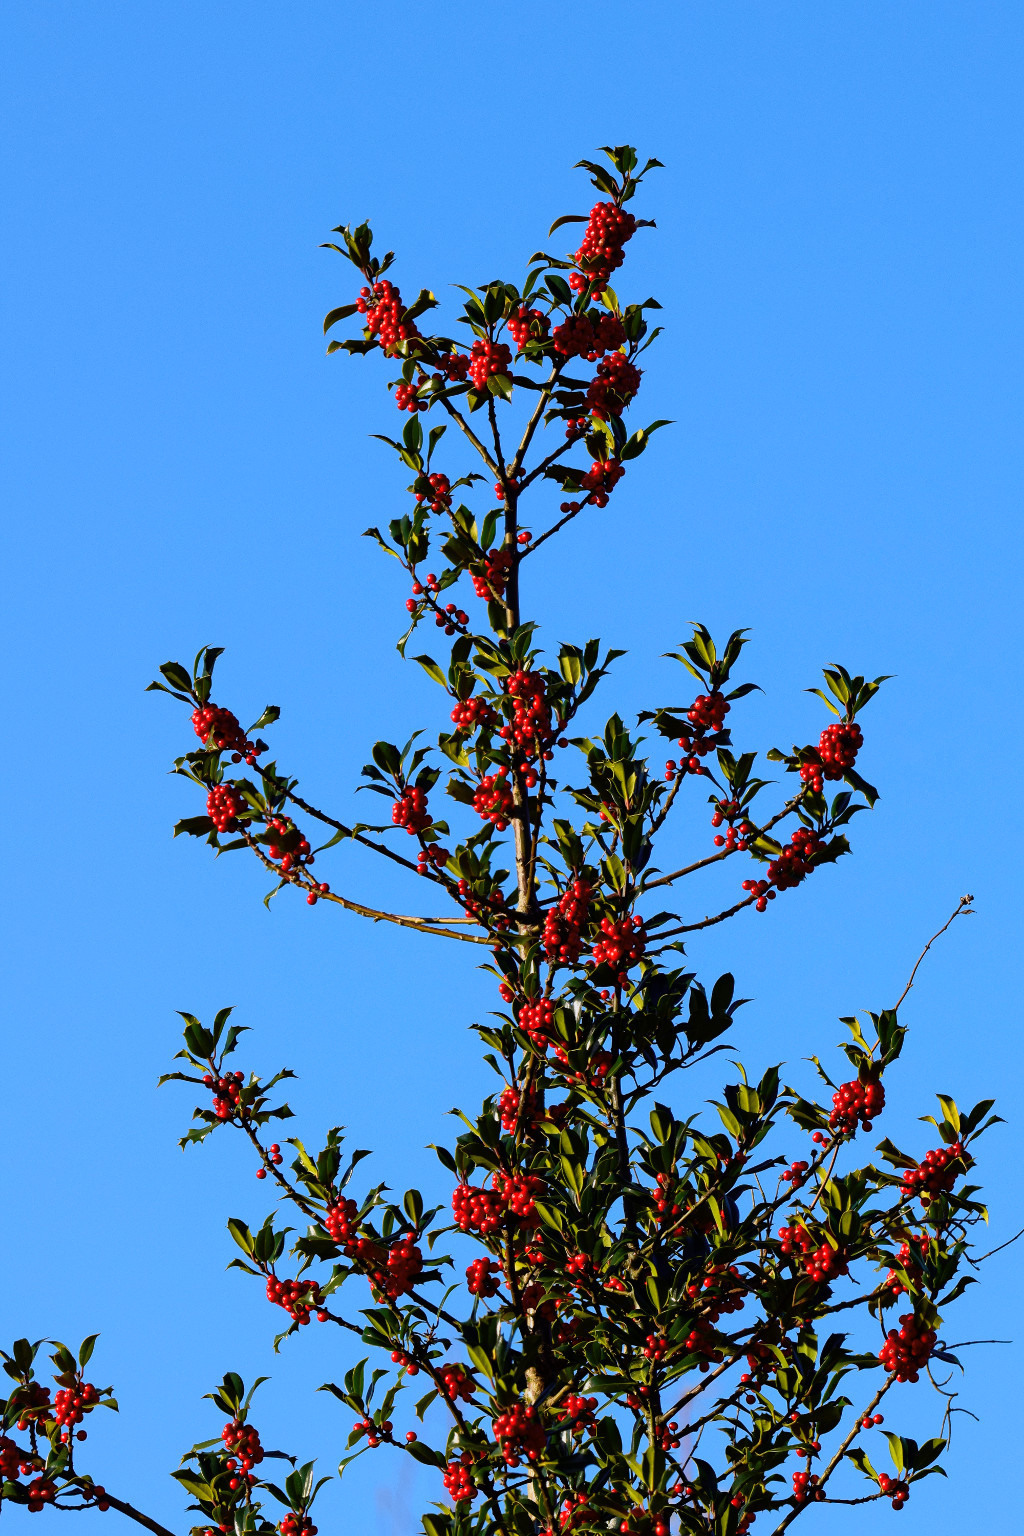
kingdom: Plantae
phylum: Tracheophyta
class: Magnoliopsida
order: Aquifoliales
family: Aquifoliaceae
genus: Ilex
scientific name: Ilex aquifolium
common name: English holly
